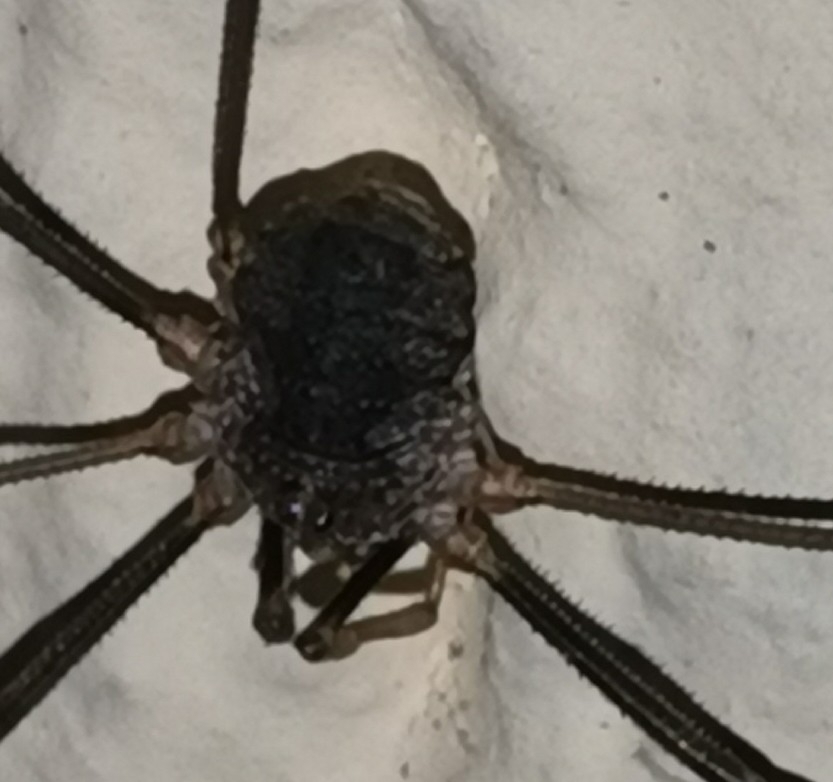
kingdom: Animalia
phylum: Arthropoda
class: Arachnida
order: Opiliones
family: Phalangiidae
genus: Phalangium
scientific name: Phalangium opilio
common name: Daddy longleg
